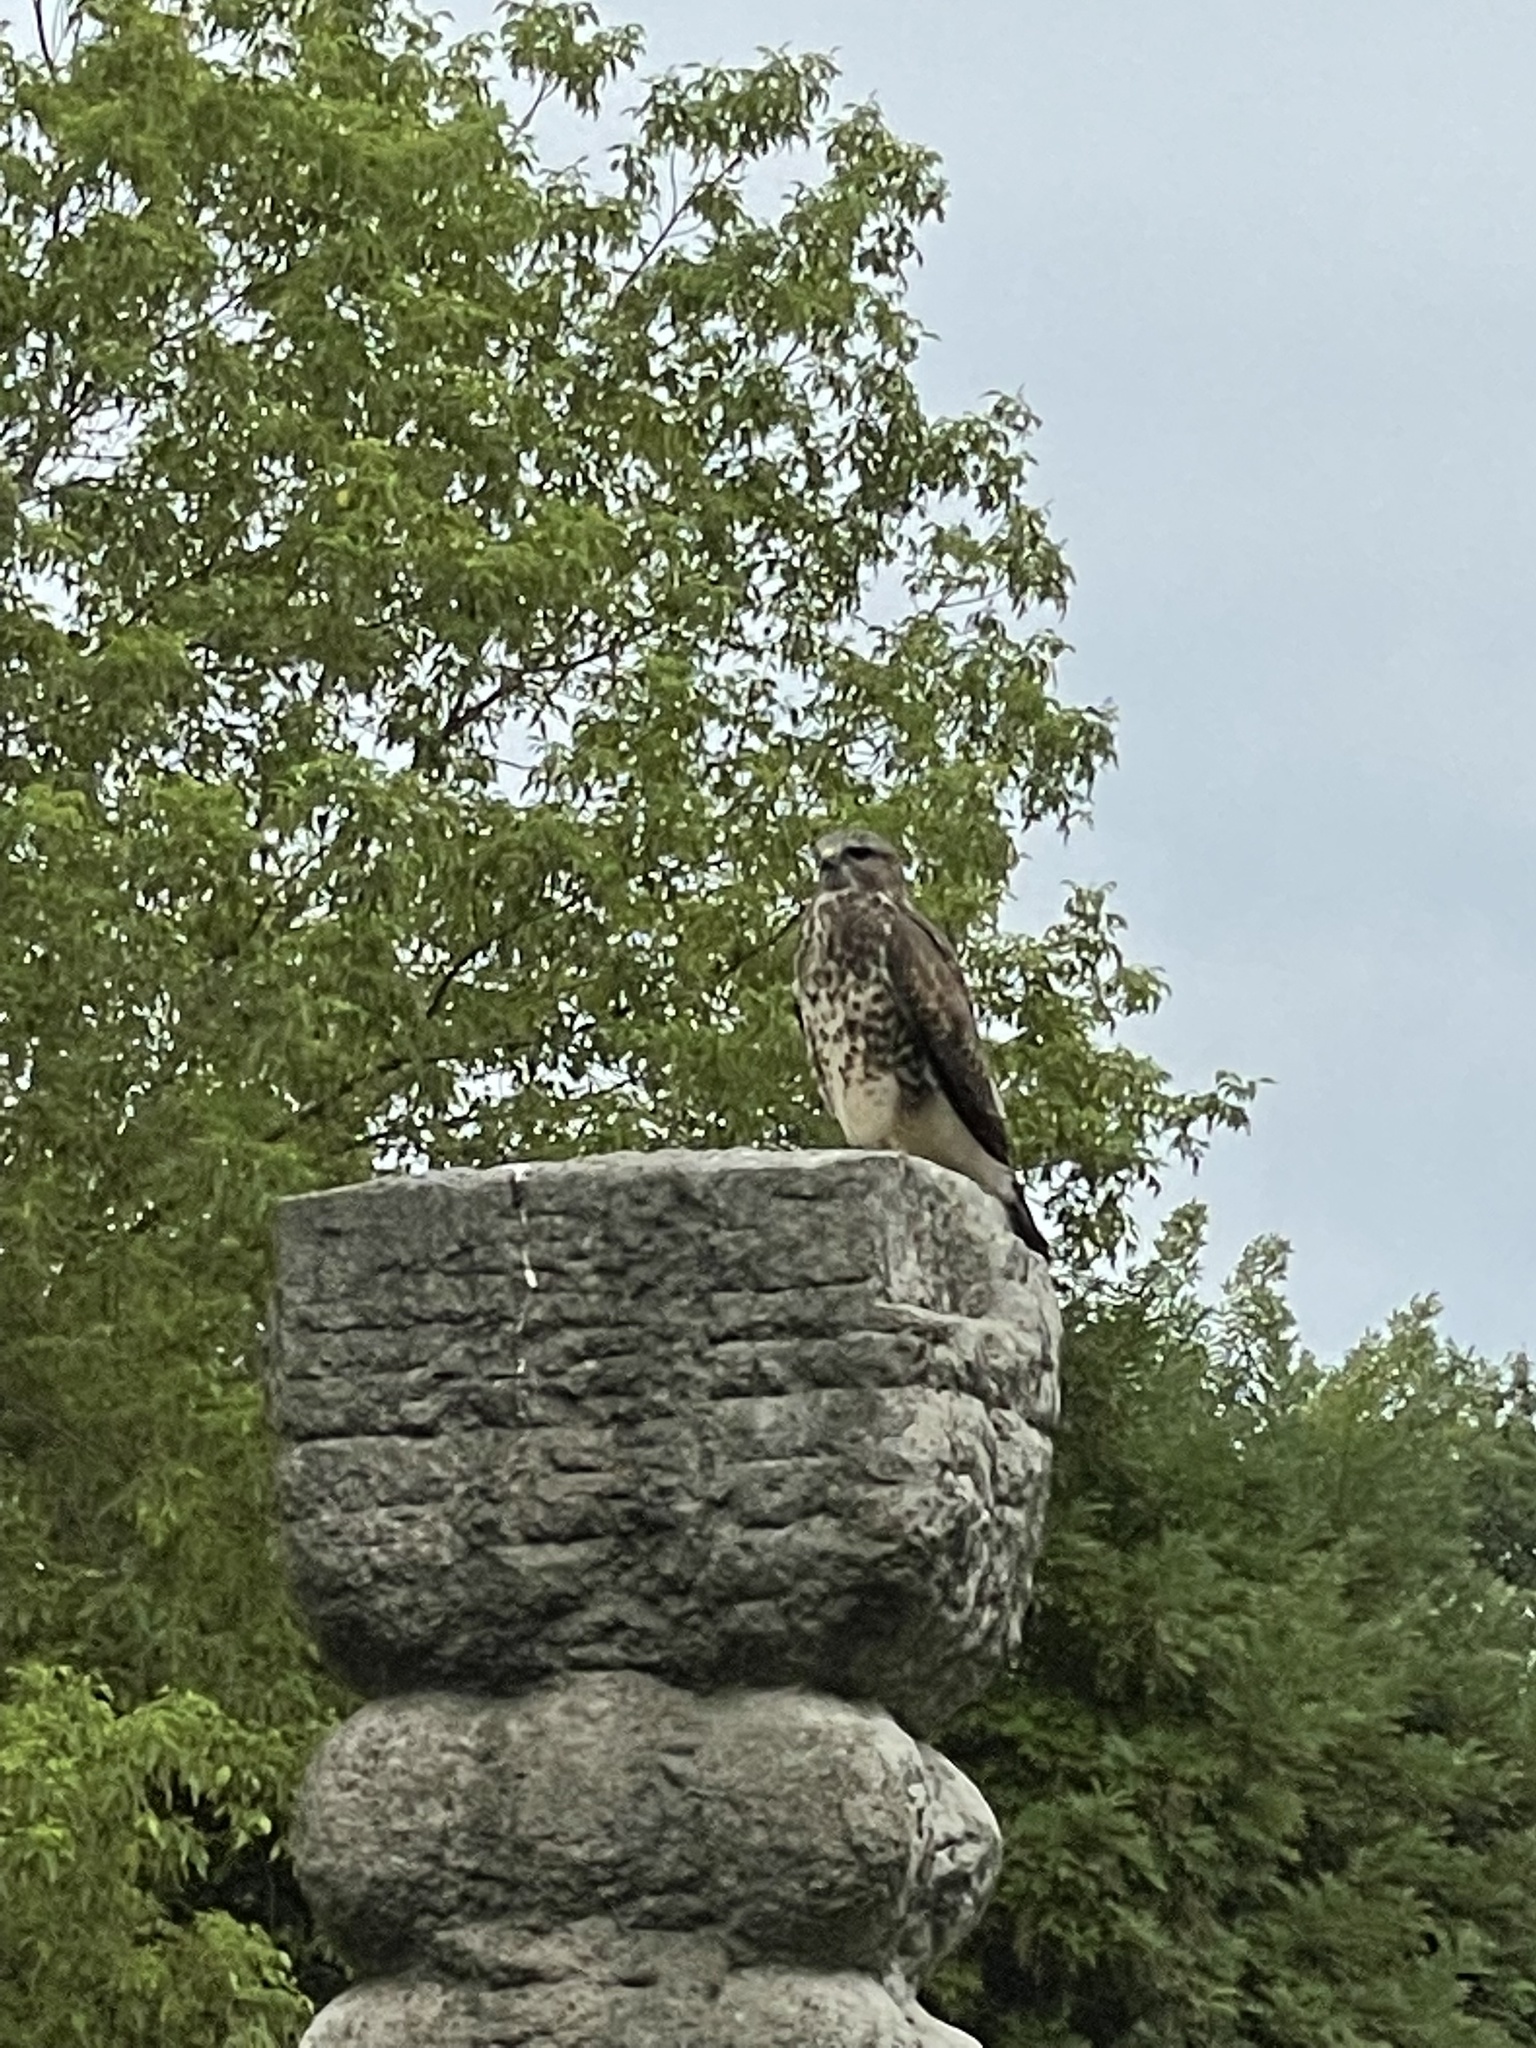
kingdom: Animalia
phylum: Chordata
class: Aves
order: Accipitriformes
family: Accipitridae
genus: Buteo
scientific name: Buteo buteo
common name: Common buzzard
